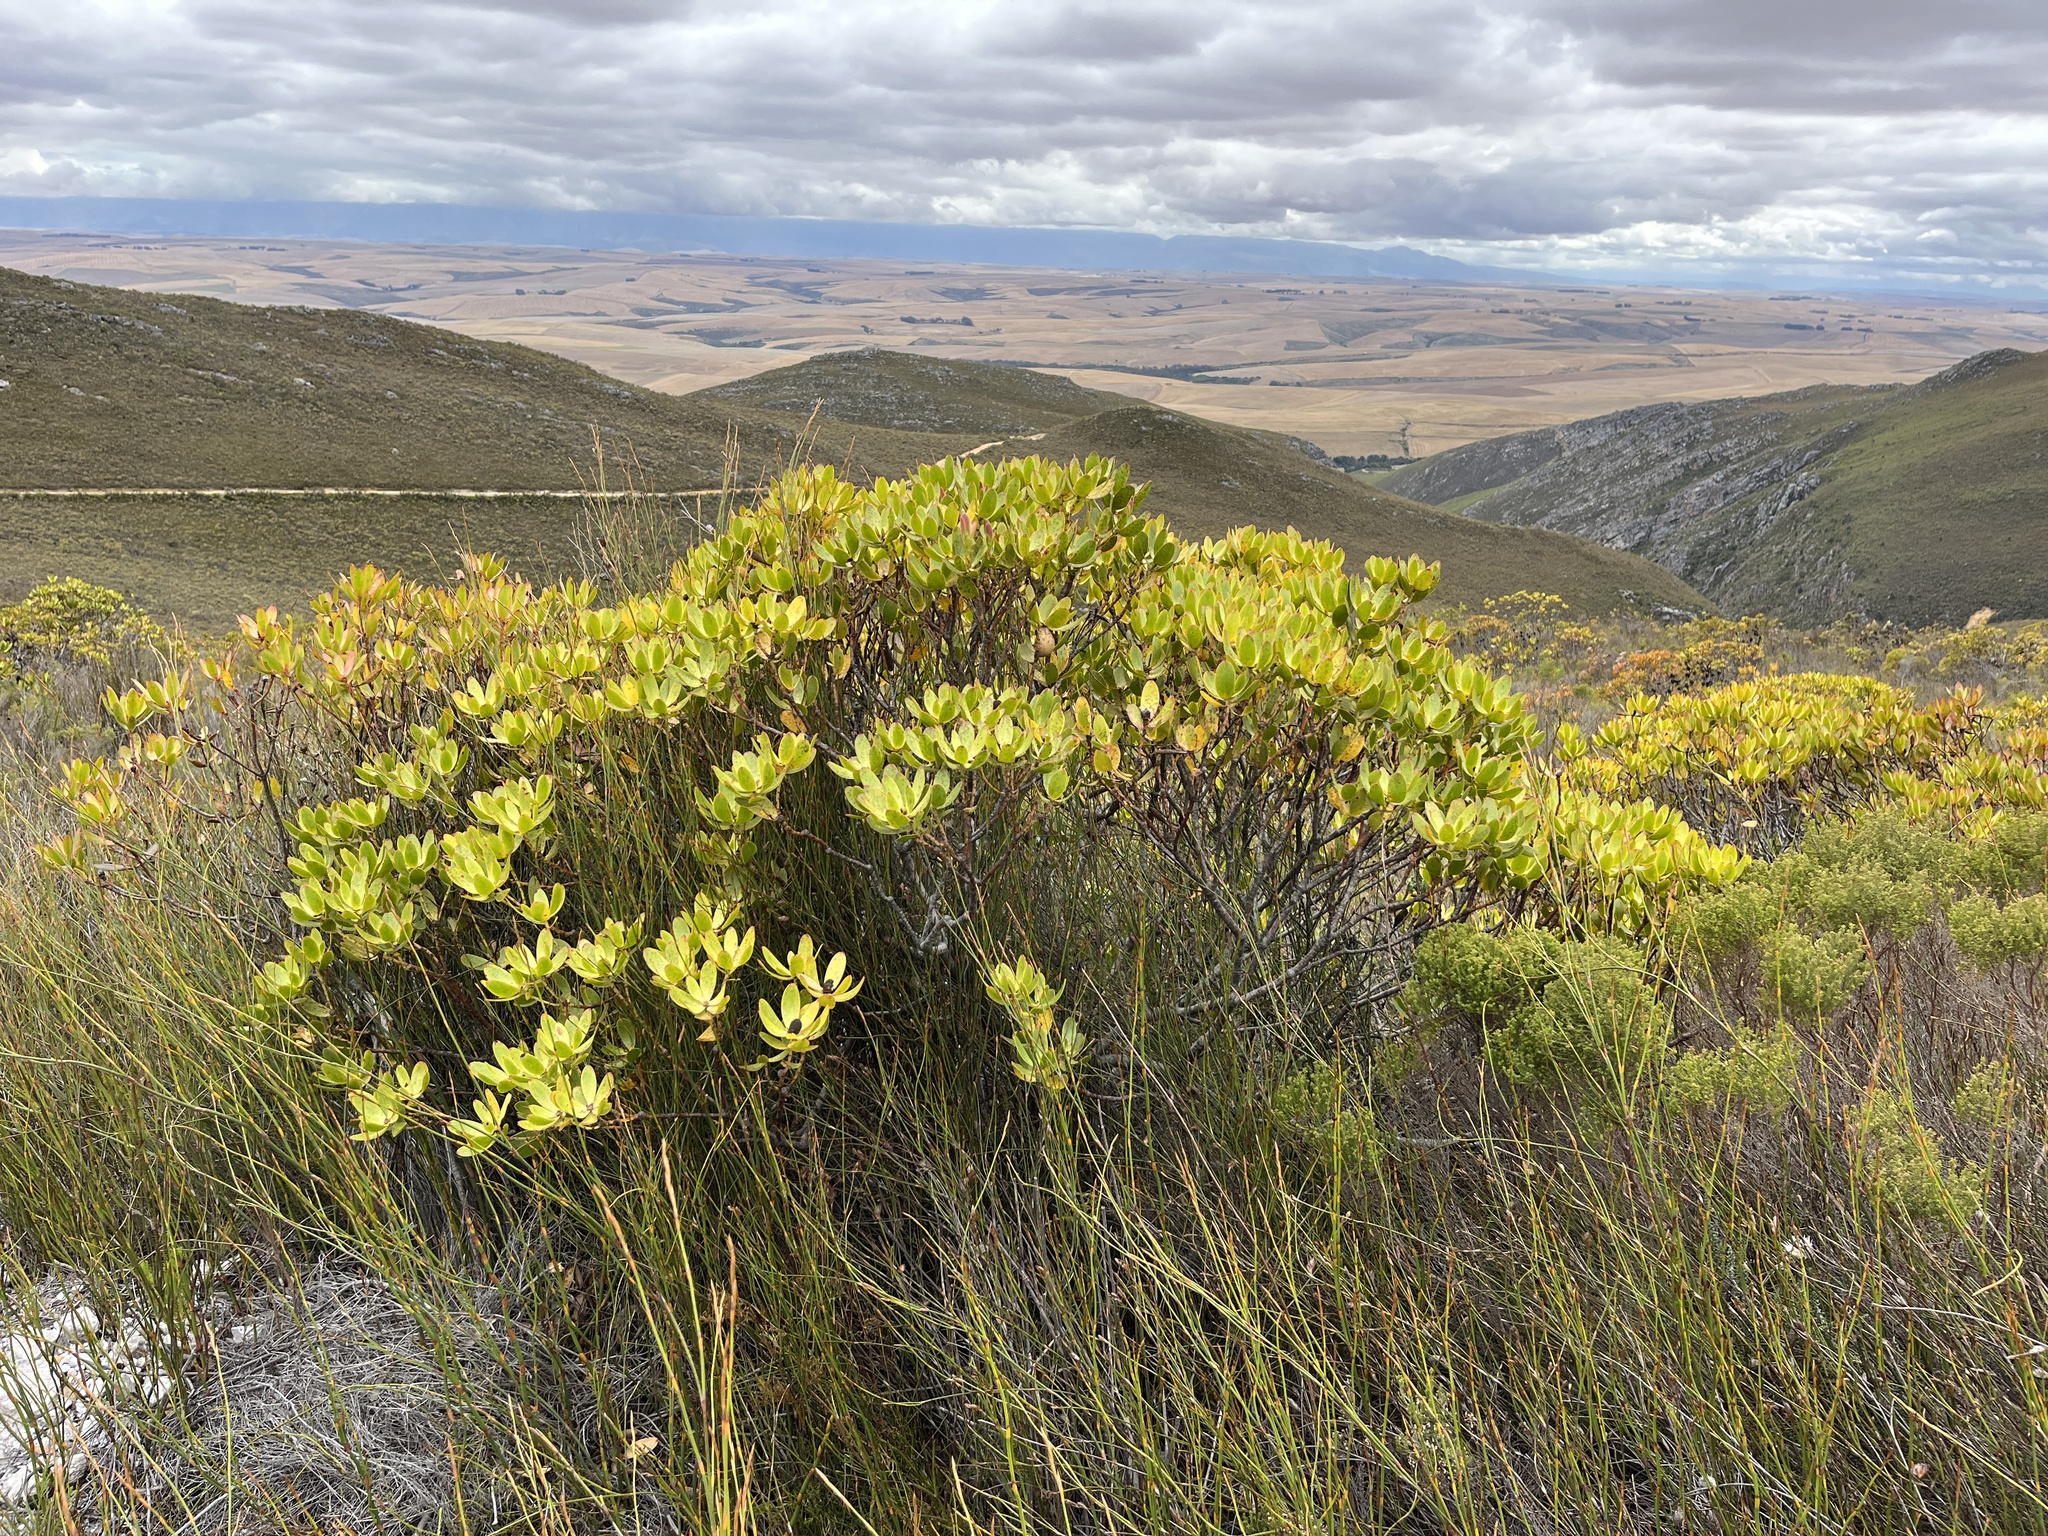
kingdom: Plantae
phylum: Tracheophyta
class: Magnoliopsida
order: Proteales
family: Proteaceae
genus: Leucadendron
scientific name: Leucadendron gandogeri
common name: Broad-leaf conebush
